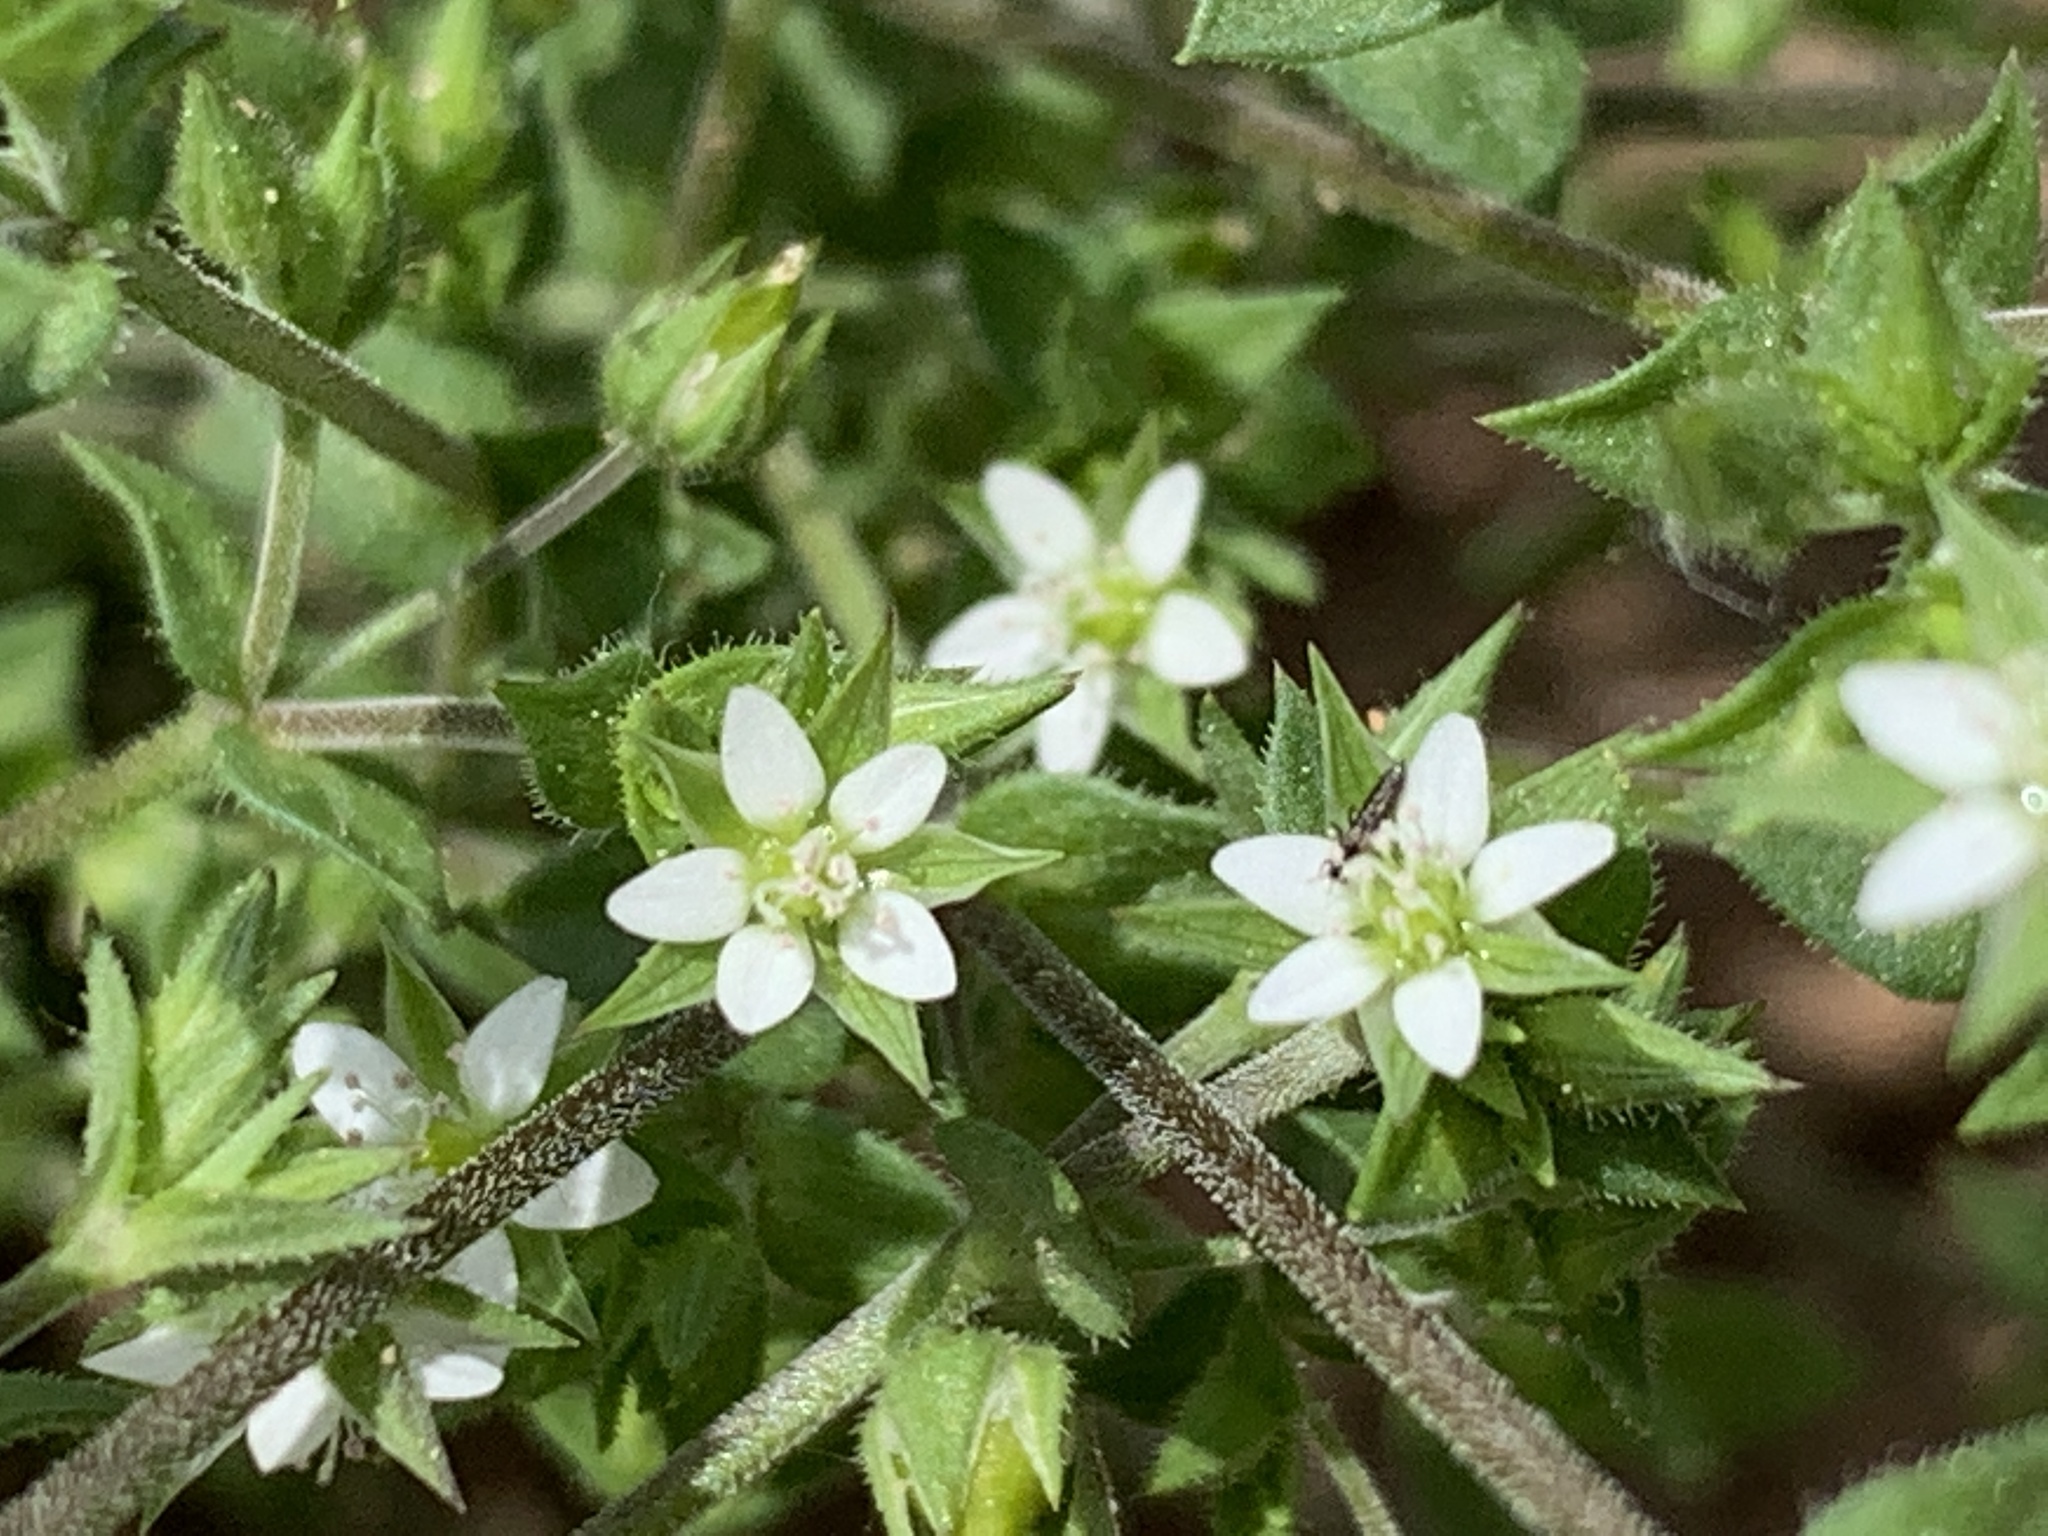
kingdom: Plantae
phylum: Tracheophyta
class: Magnoliopsida
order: Caryophyllales
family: Caryophyllaceae
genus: Arenaria
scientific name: Arenaria serpyllifolia
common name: Thyme-leaved sandwort
